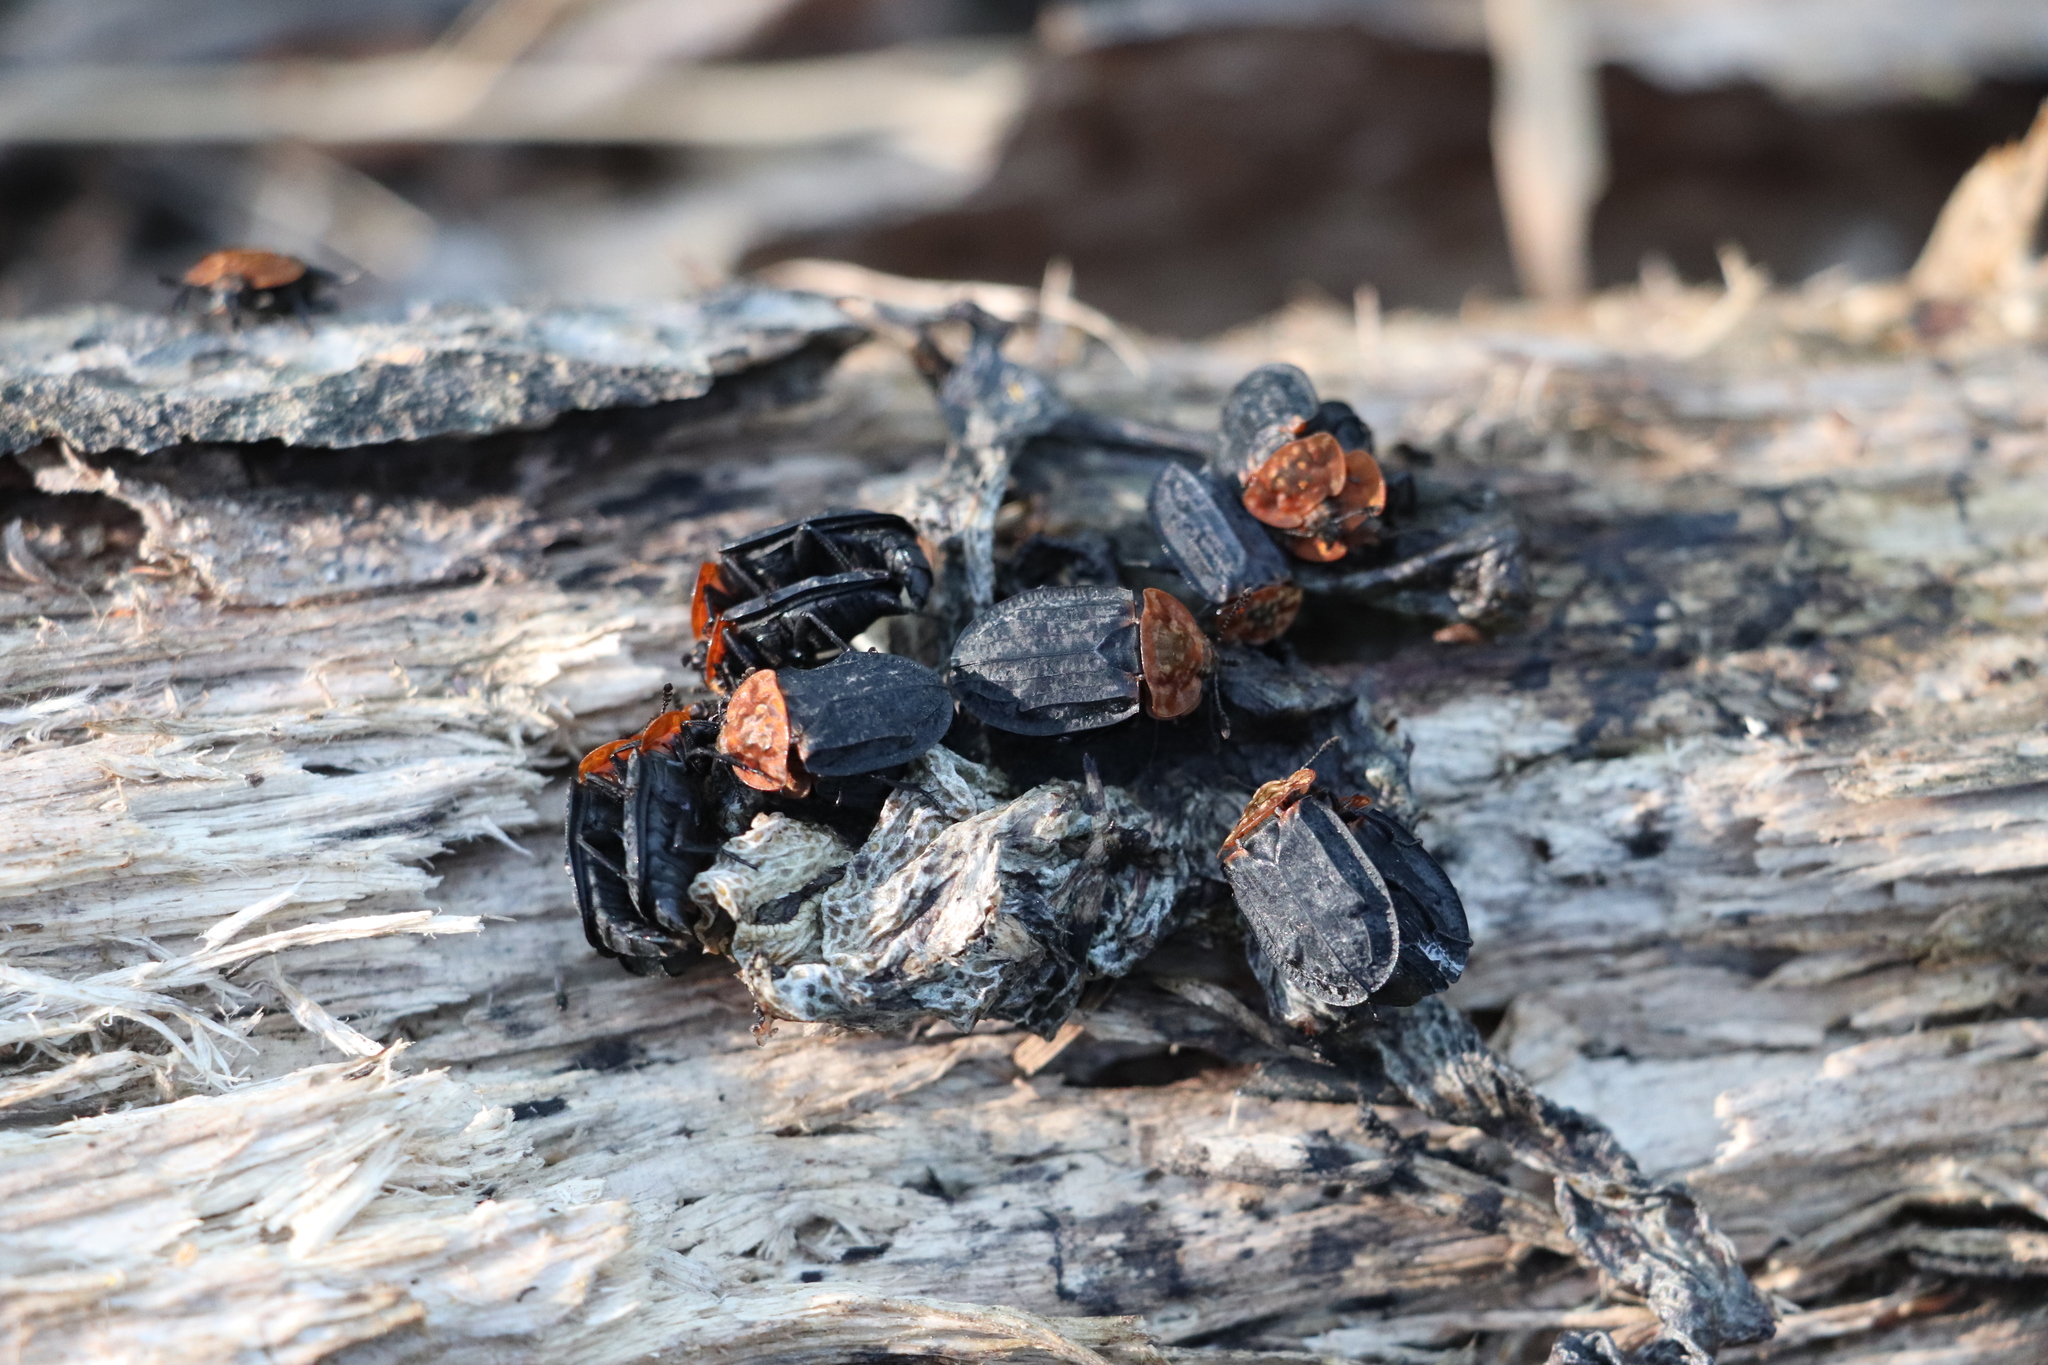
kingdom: Animalia
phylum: Arthropoda
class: Insecta
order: Coleoptera
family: Staphylinidae
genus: Oiceoptoma
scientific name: Oiceoptoma thoracicum
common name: Red-breasted carrion beetle
